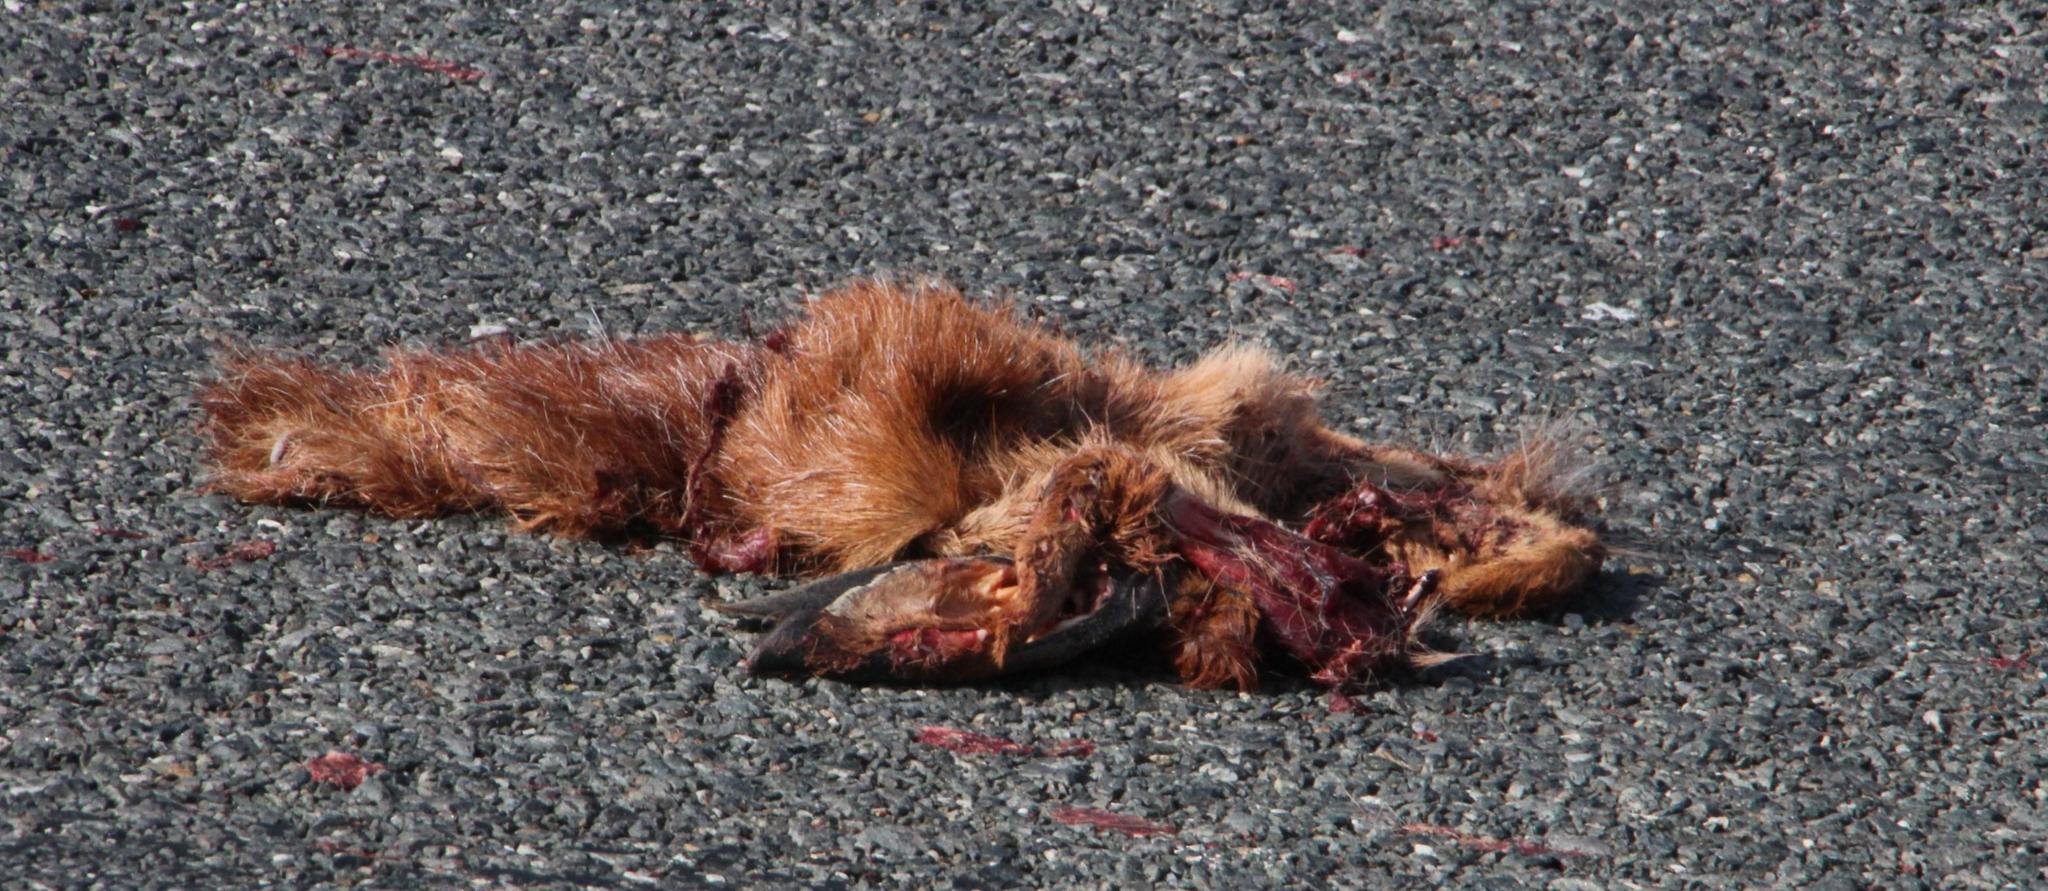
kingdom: Animalia
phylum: Chordata
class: Mammalia
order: Artiodactyla
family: Bovidae
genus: Raphicerus
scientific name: Raphicerus melanotis
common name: Cape grysbok
